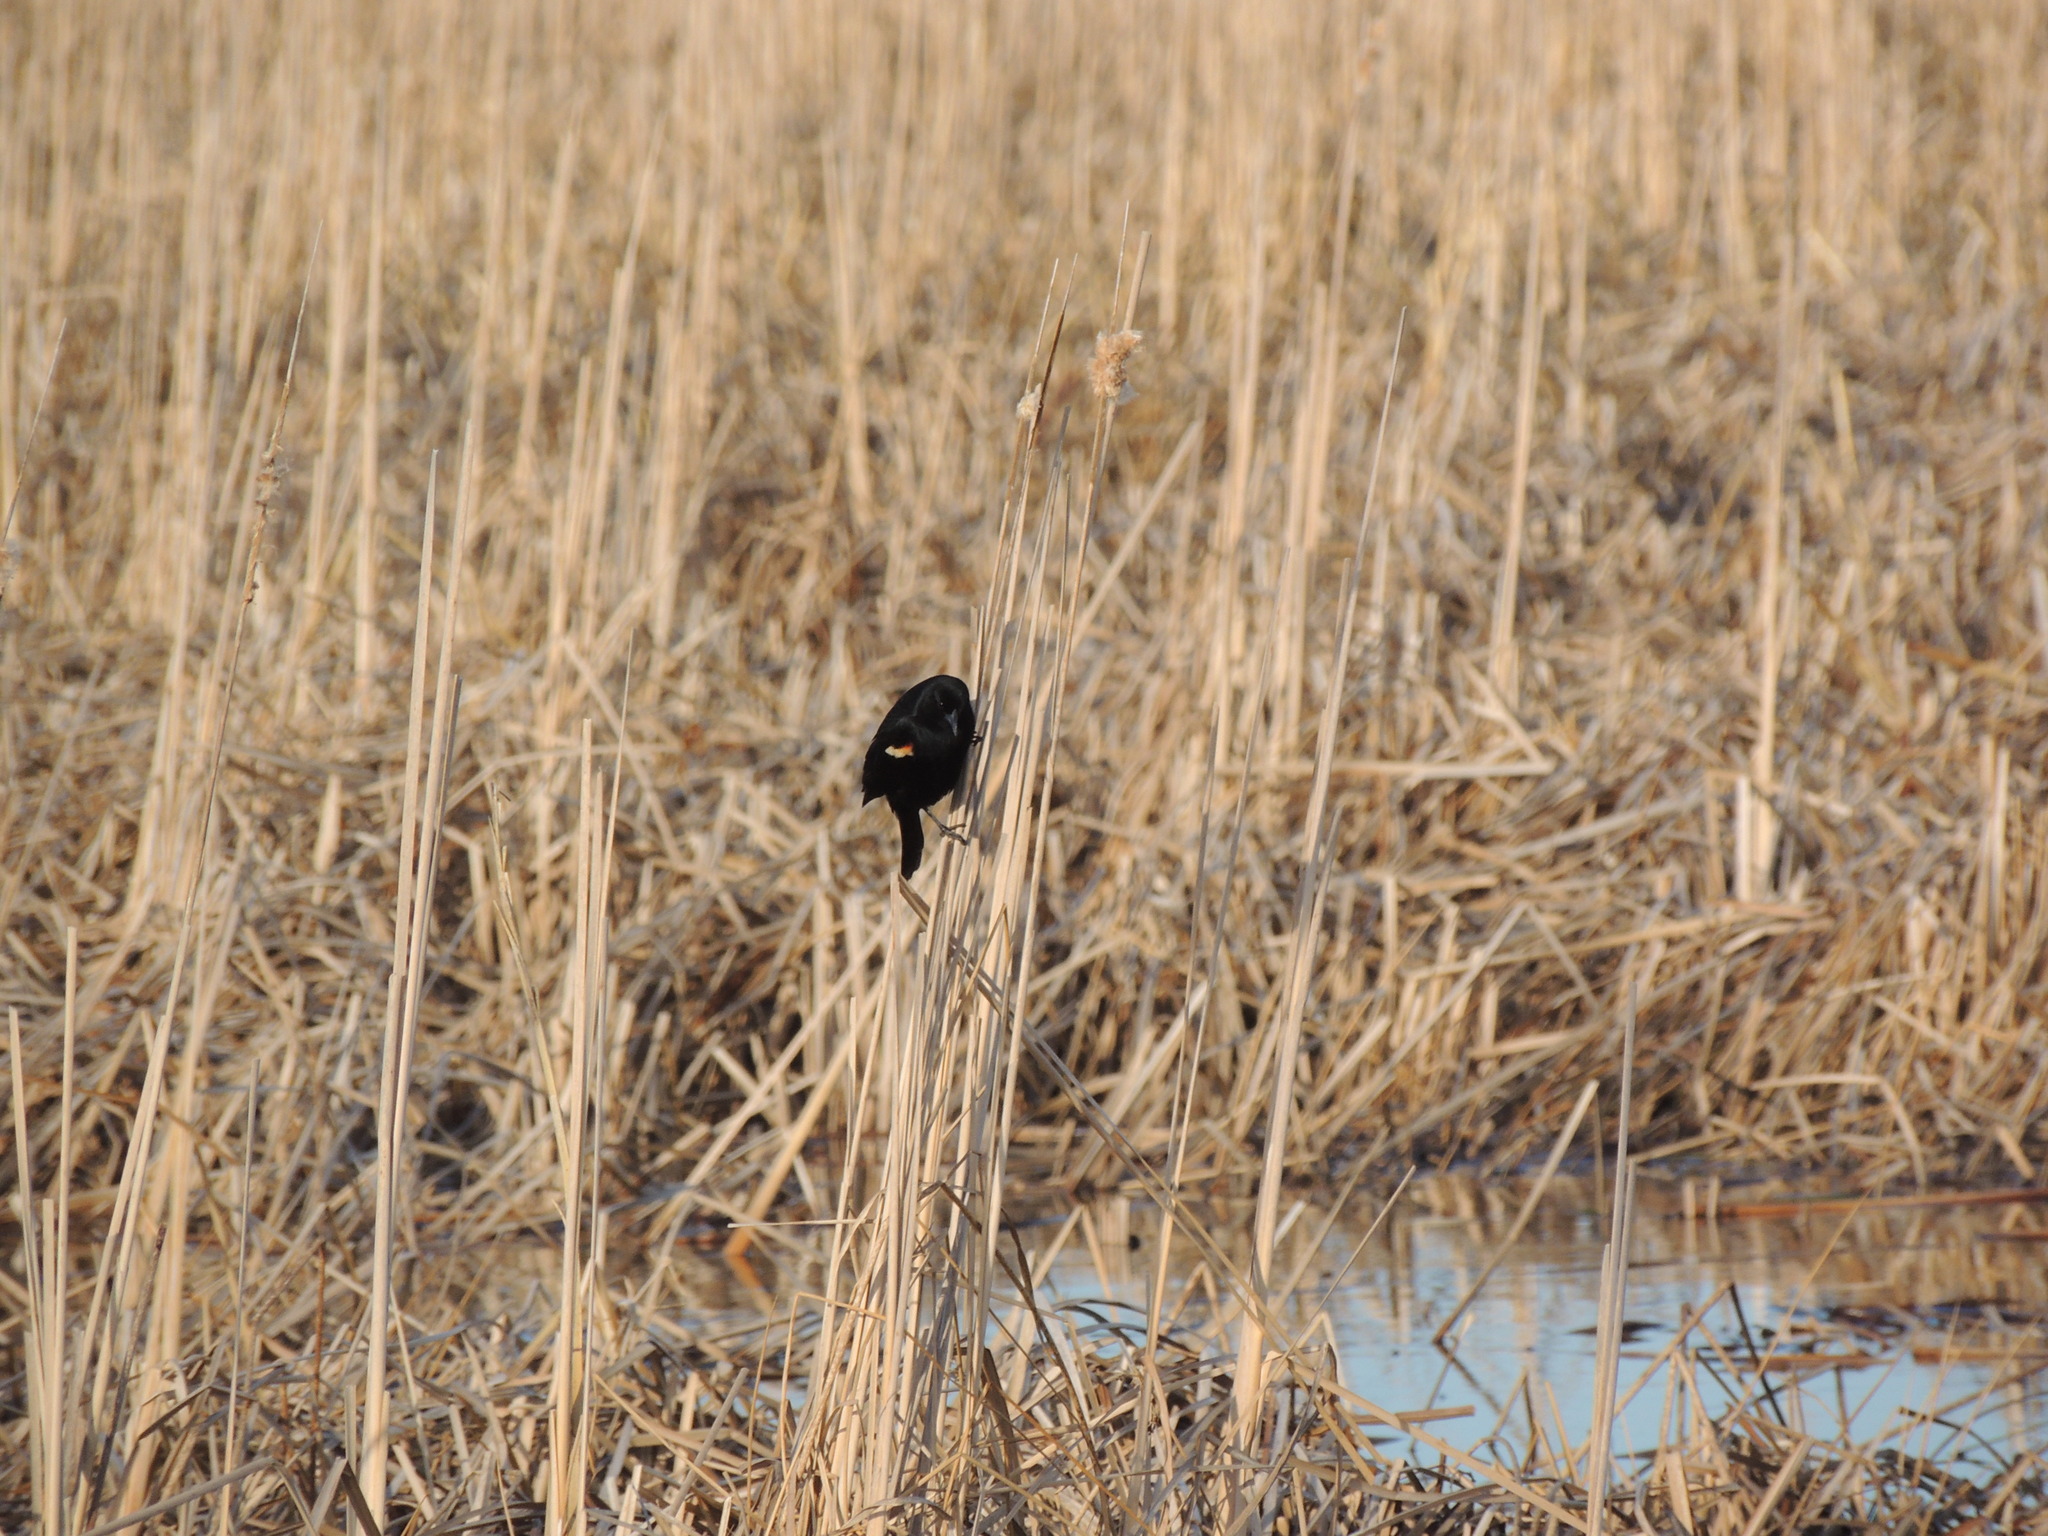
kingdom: Animalia
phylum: Chordata
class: Aves
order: Passeriformes
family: Icteridae
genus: Agelaius
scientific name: Agelaius phoeniceus
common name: Red-winged blackbird
